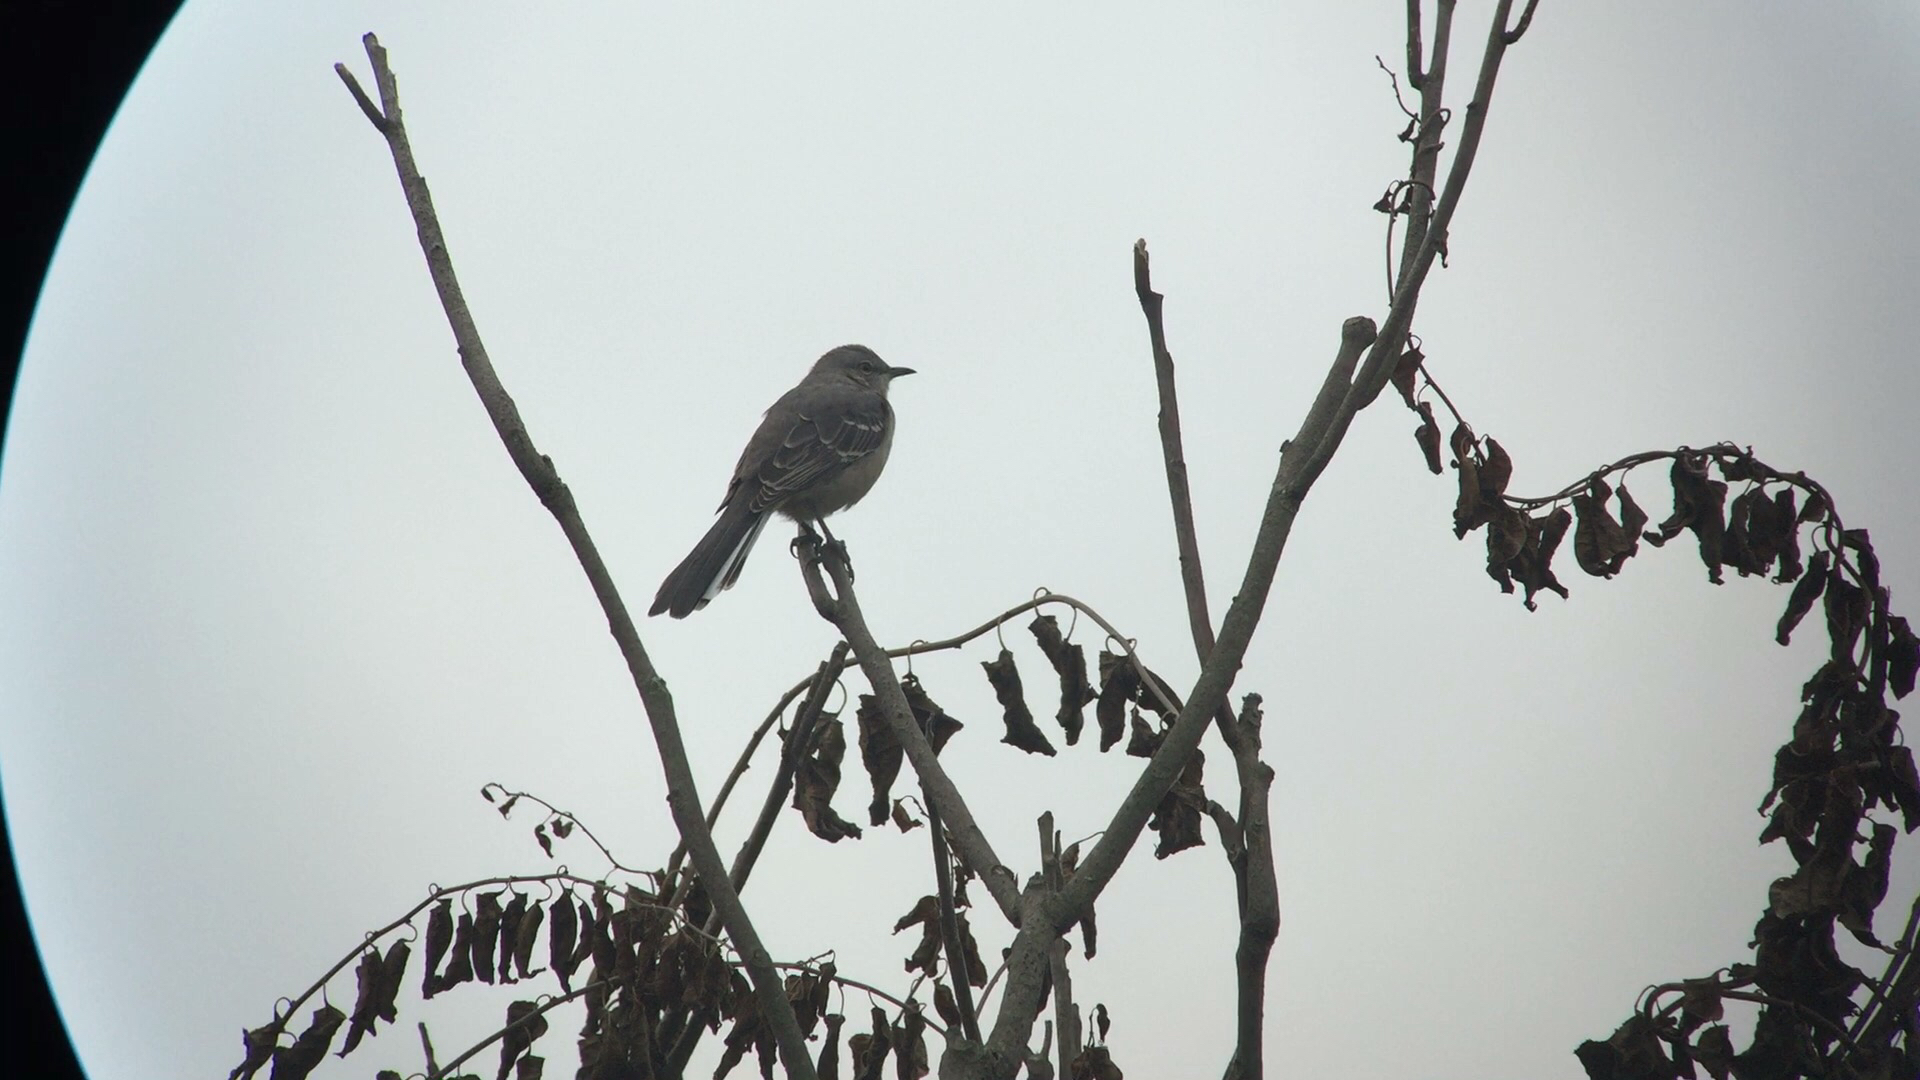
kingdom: Animalia
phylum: Chordata
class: Aves
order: Passeriformes
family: Mimidae
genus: Mimus
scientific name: Mimus polyglottos
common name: Northern mockingbird
